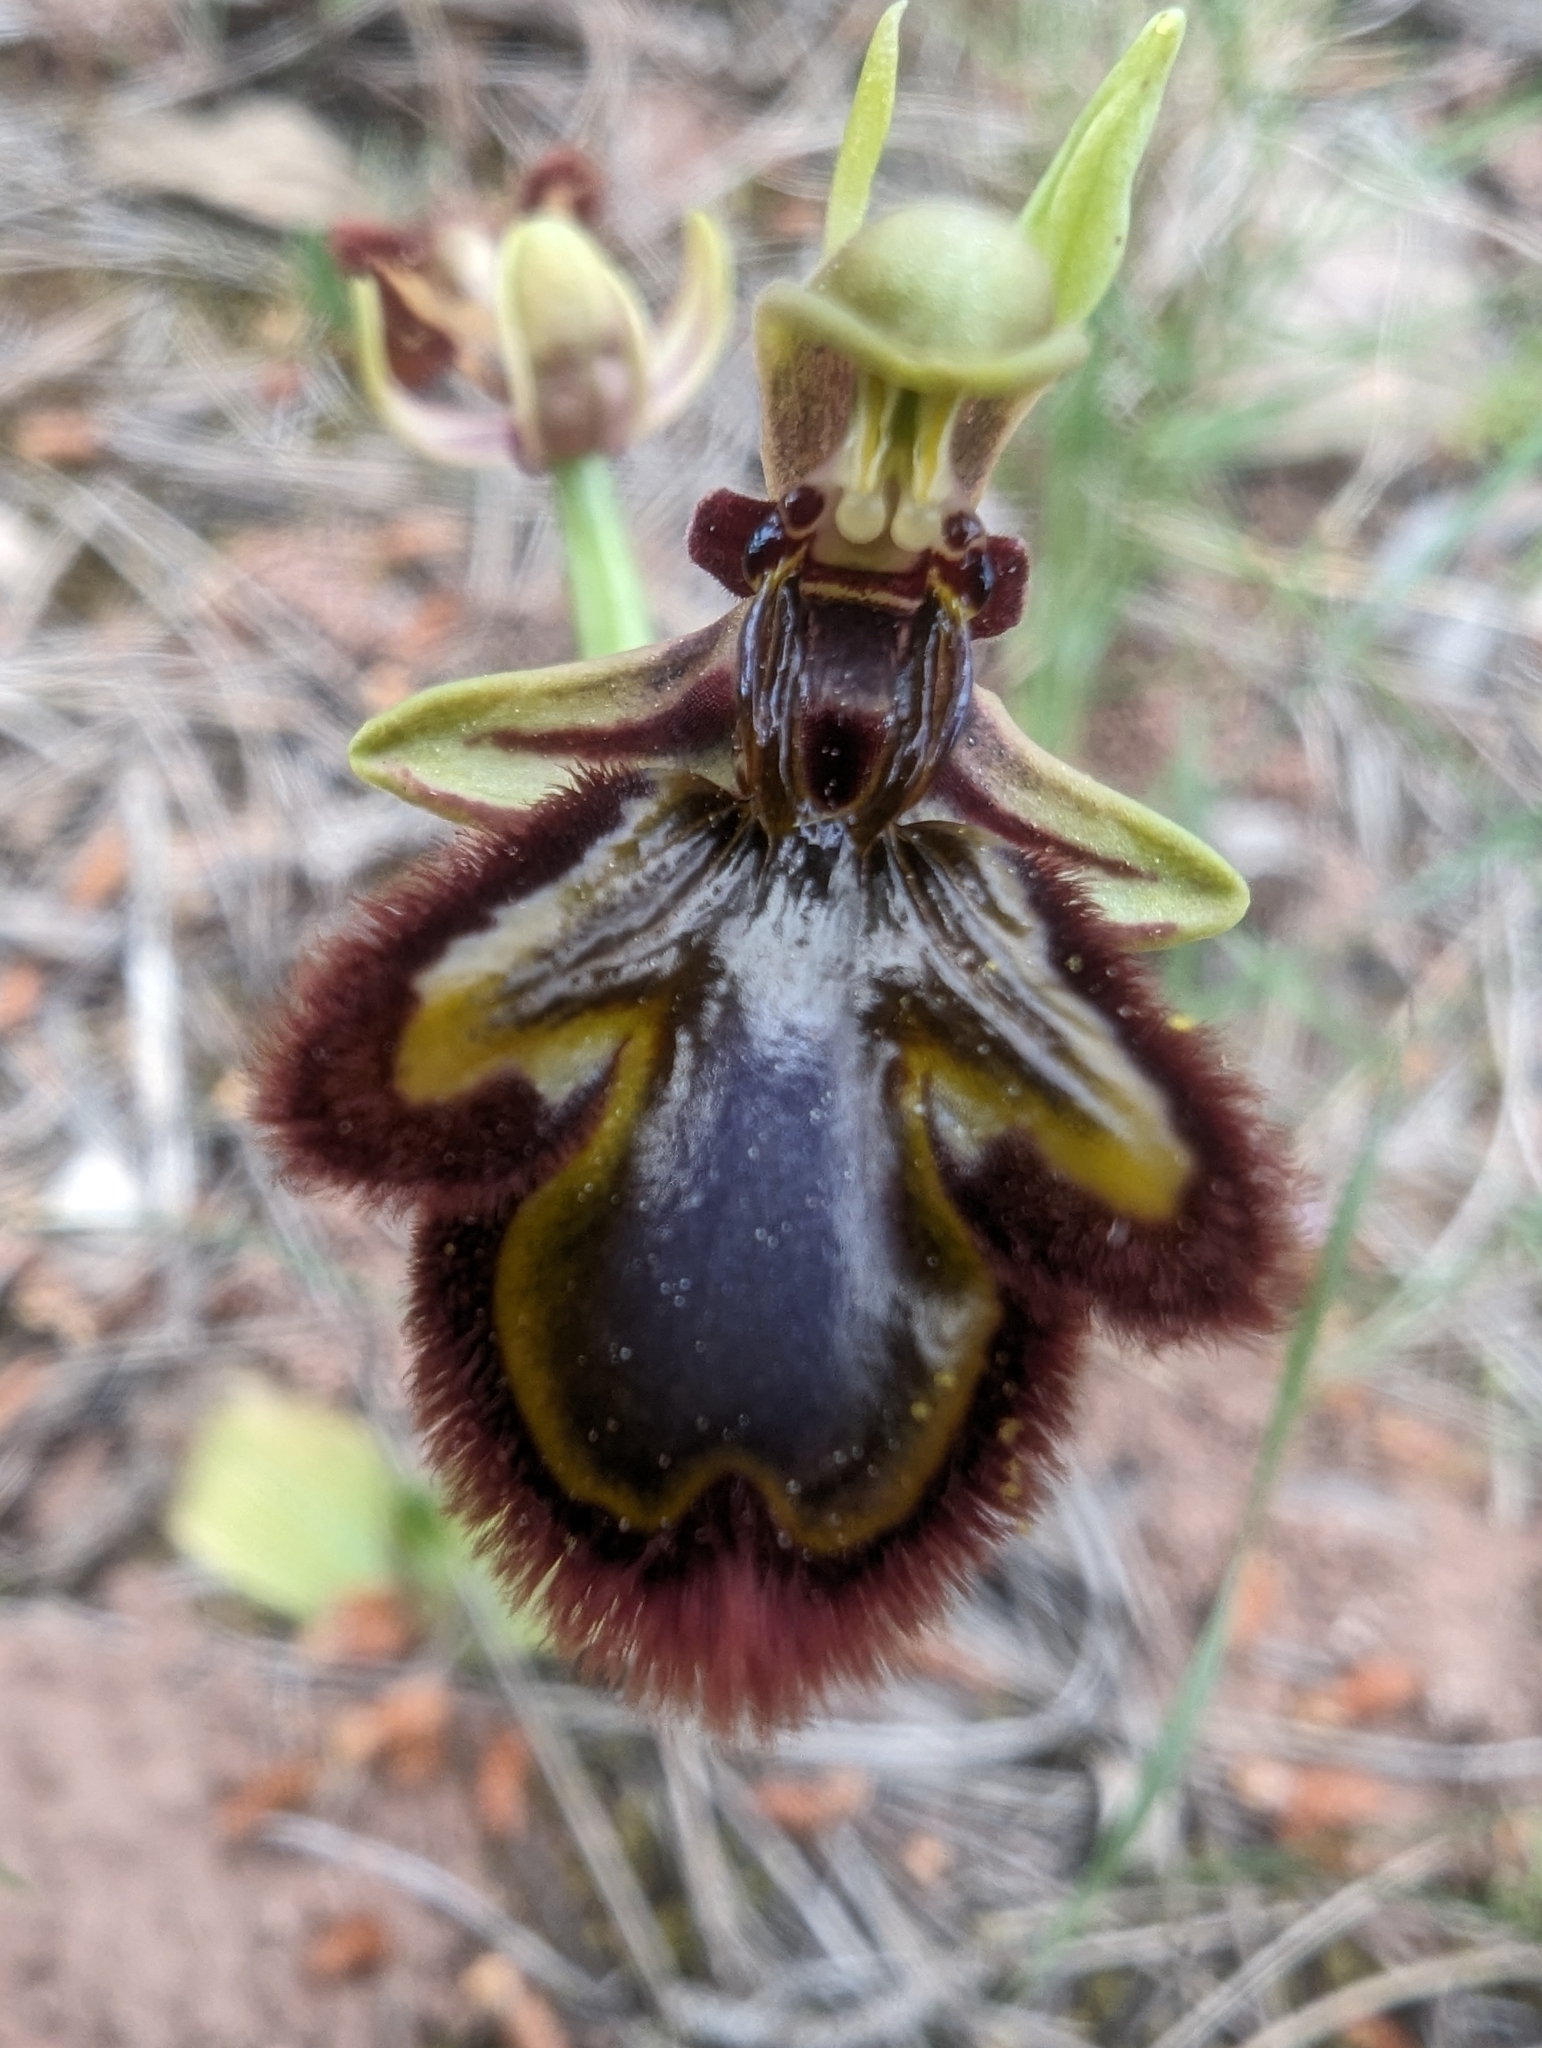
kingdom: Plantae
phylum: Tracheophyta
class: Liliopsida
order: Asparagales
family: Orchidaceae
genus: Ophrys
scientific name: Ophrys speculum
